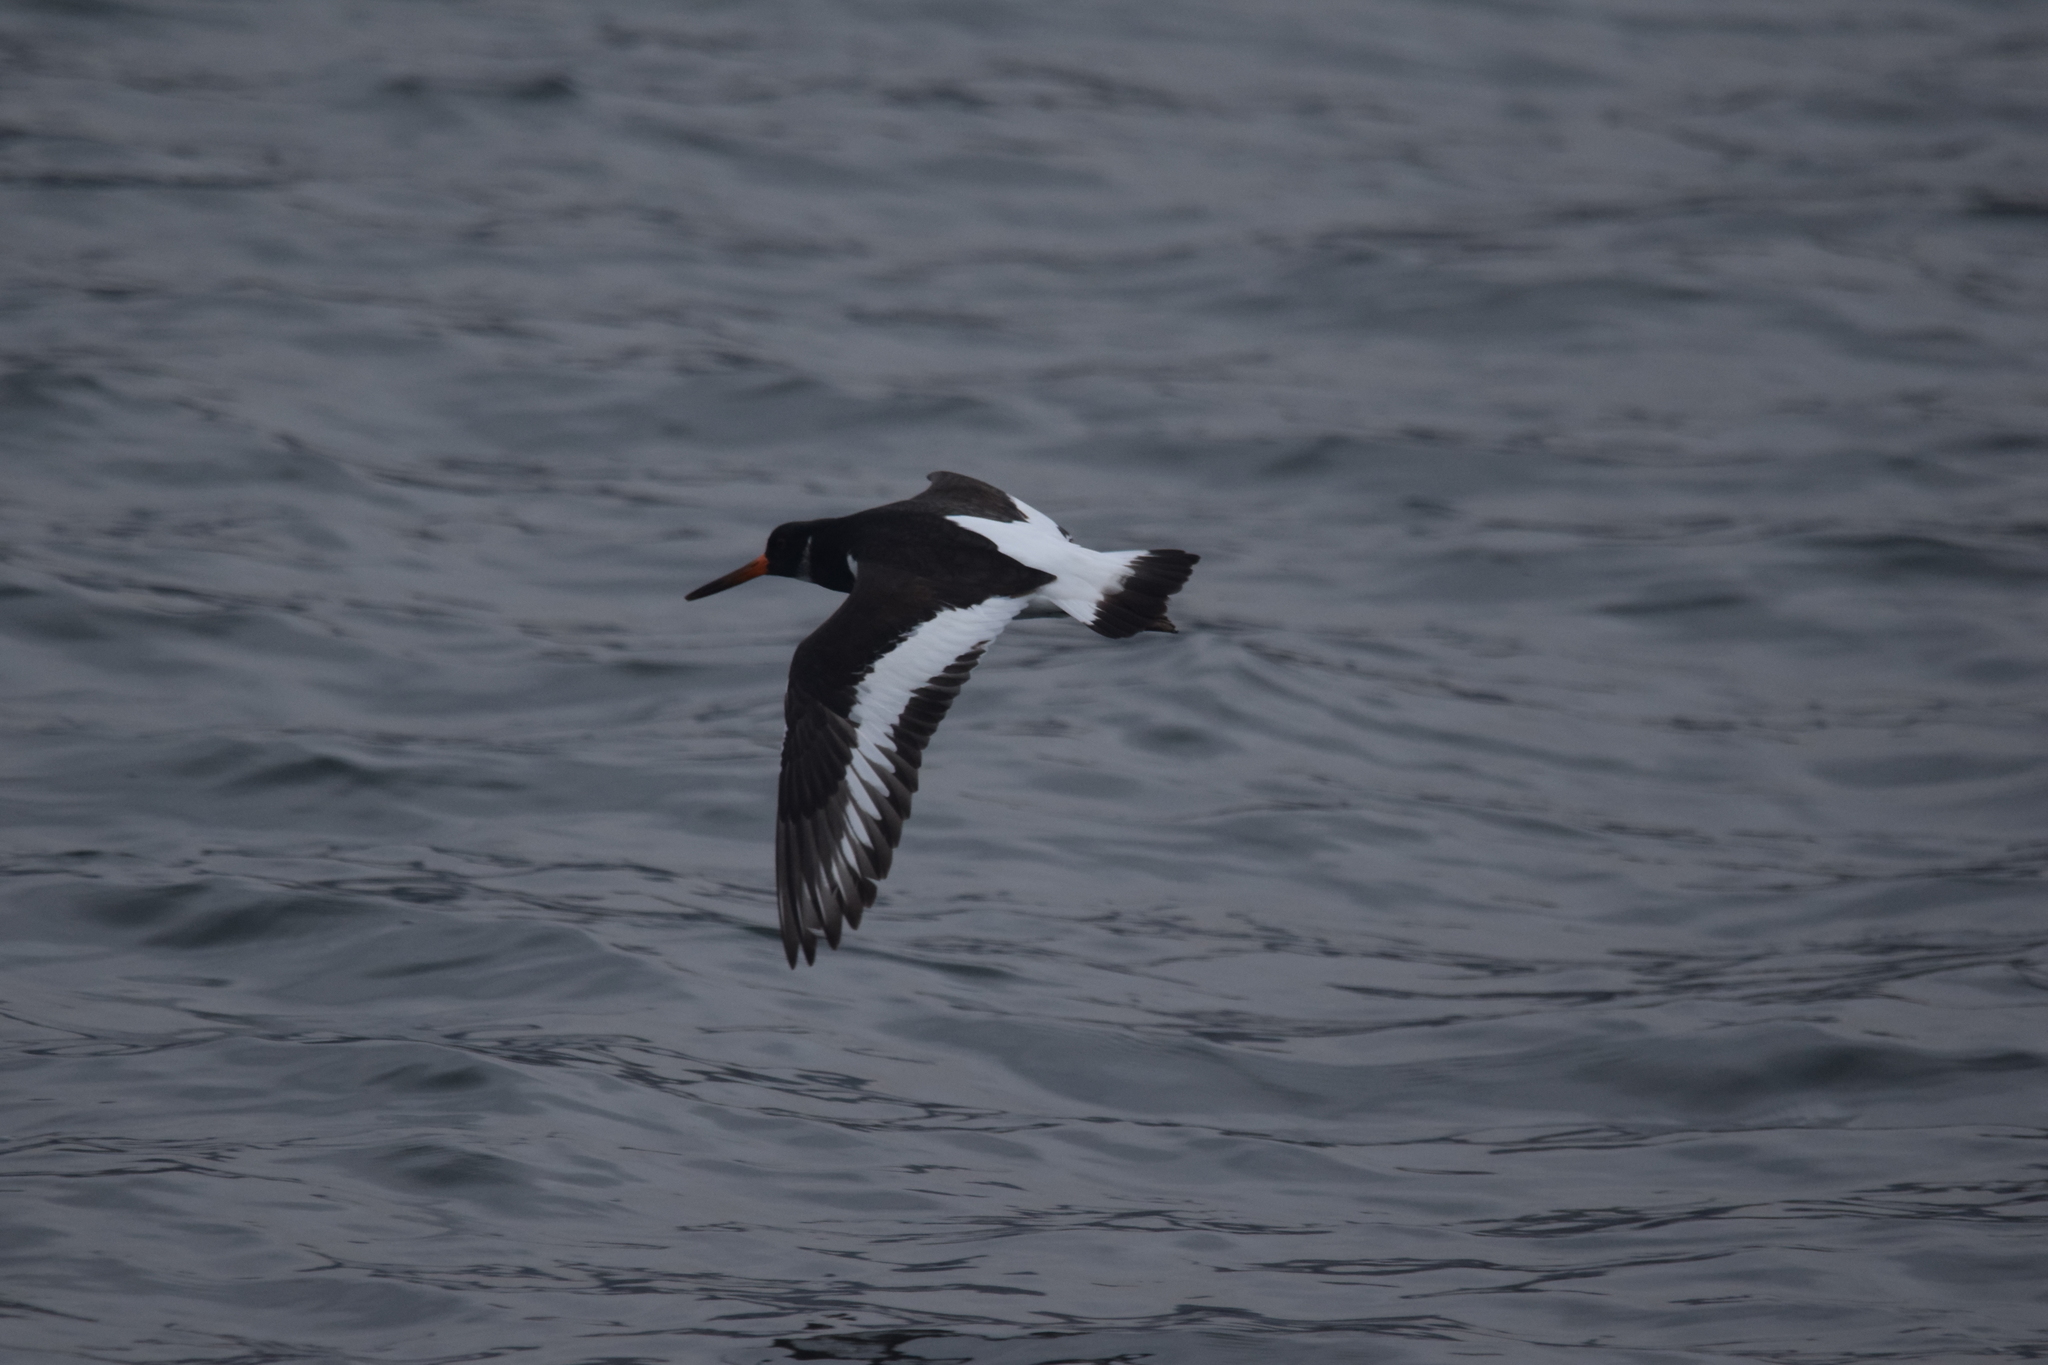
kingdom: Animalia
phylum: Chordata
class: Aves
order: Charadriiformes
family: Haematopodidae
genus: Haematopus
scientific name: Haematopus ostralegus
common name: Eurasian oystercatcher
